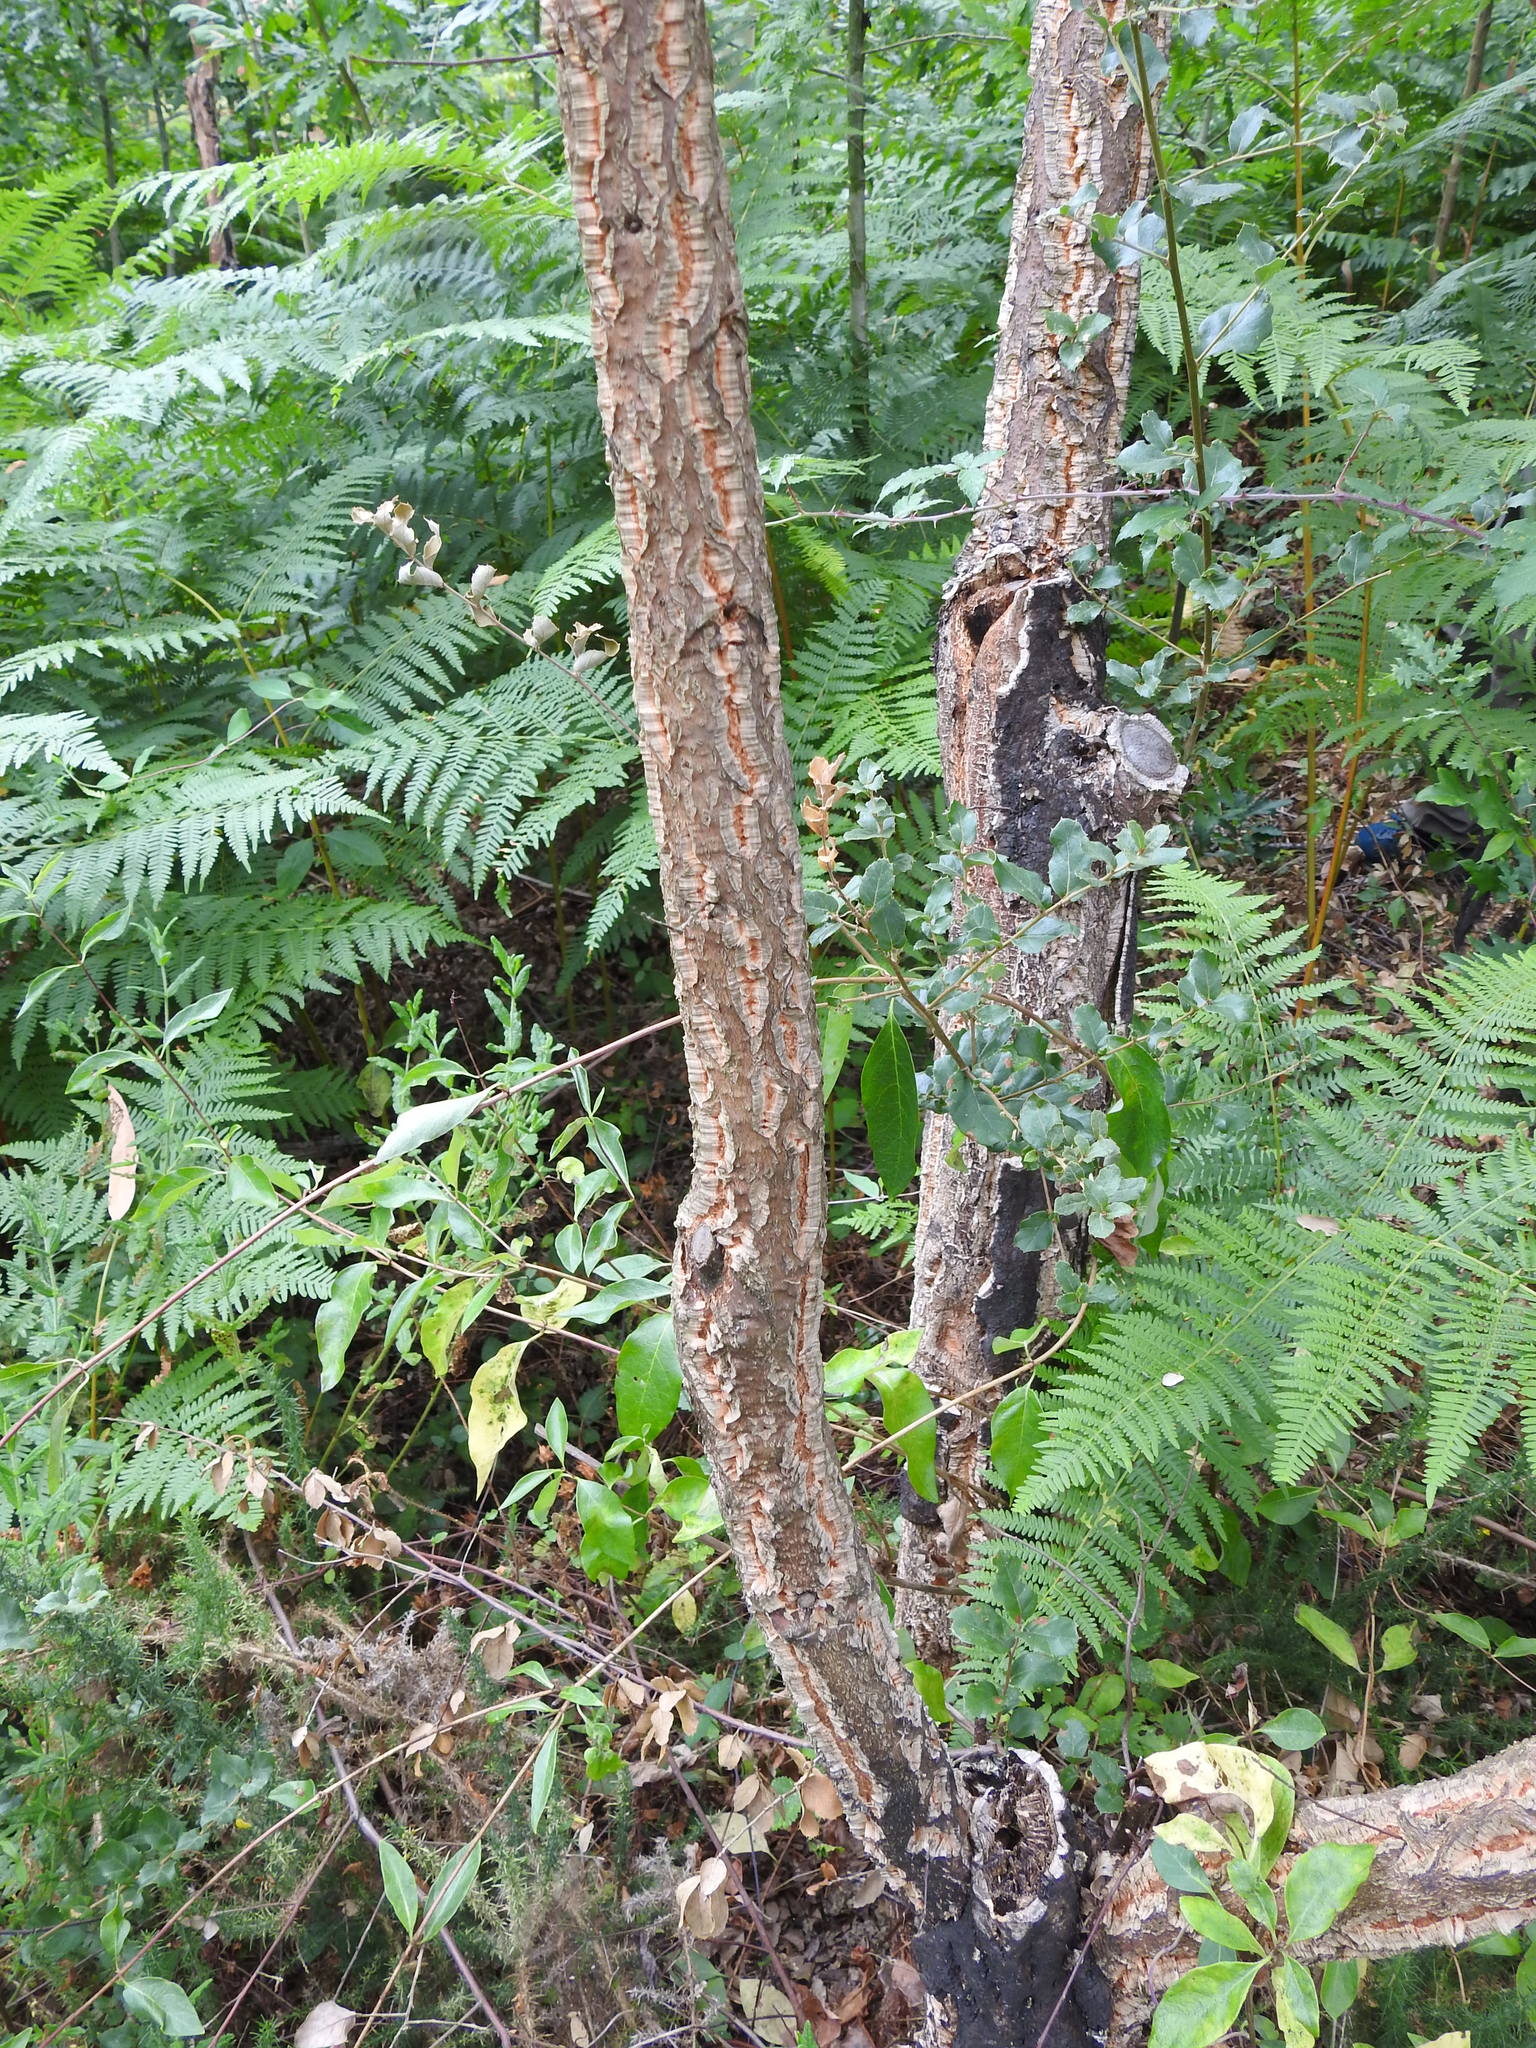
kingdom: Plantae
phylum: Tracheophyta
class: Magnoliopsida
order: Fagales
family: Fagaceae
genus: Quercus
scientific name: Quercus suber
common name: Cork oak
